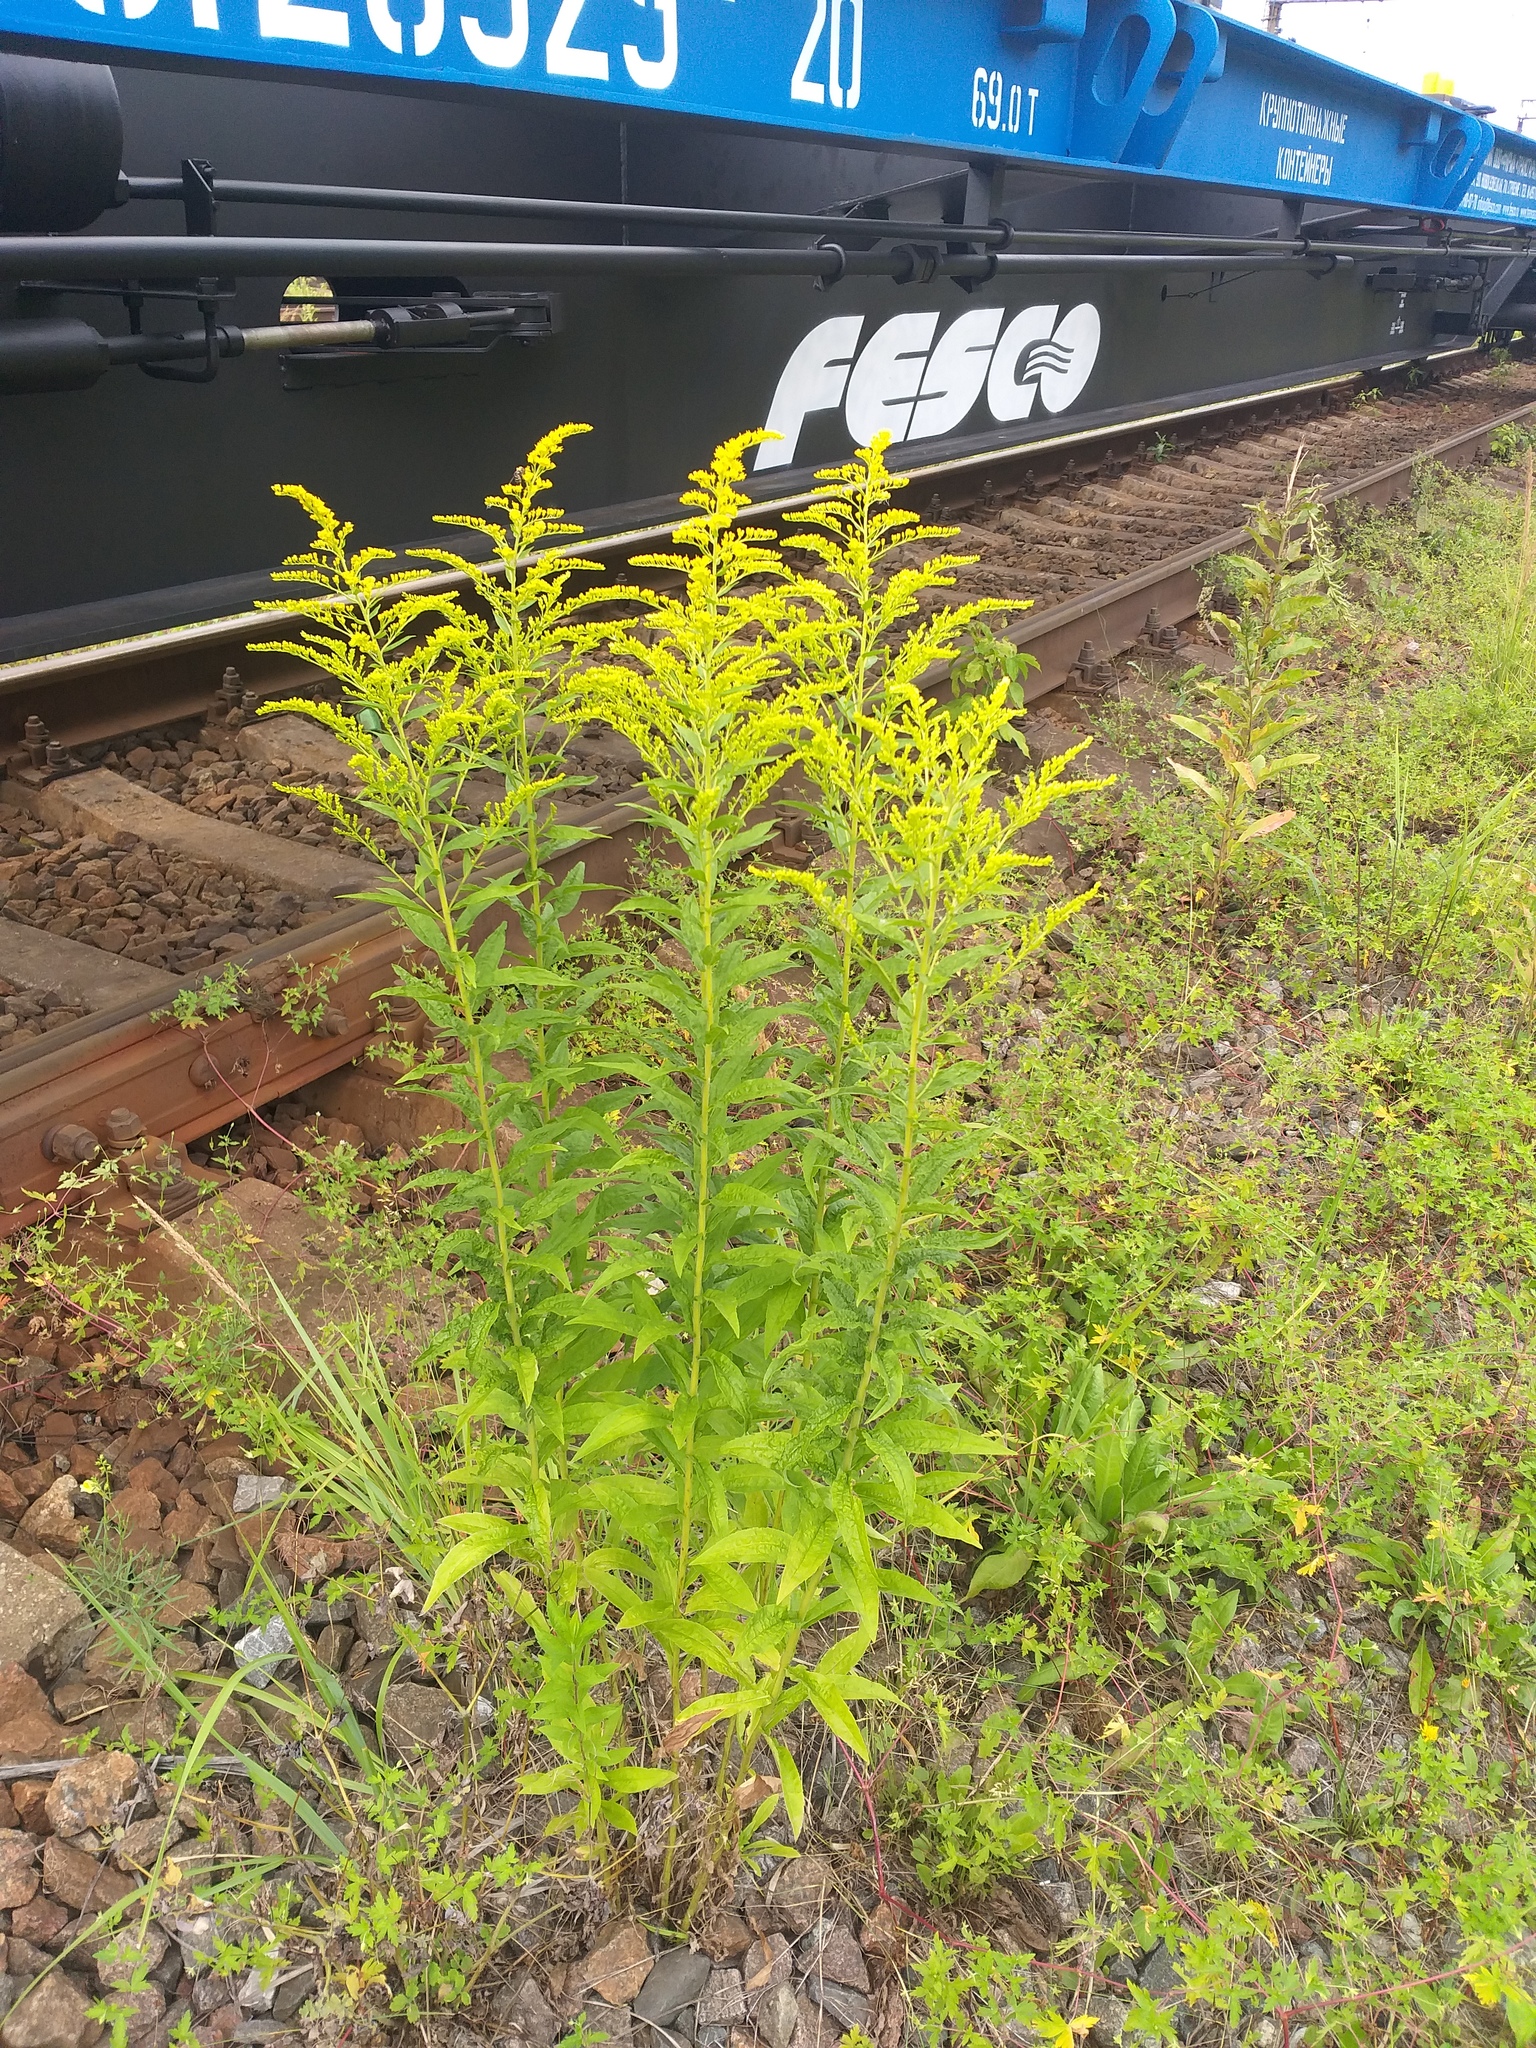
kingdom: Plantae
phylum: Tracheophyta
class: Magnoliopsida
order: Asterales
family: Asteraceae
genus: Solidago
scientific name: Solidago canadensis
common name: Canada goldenrod
